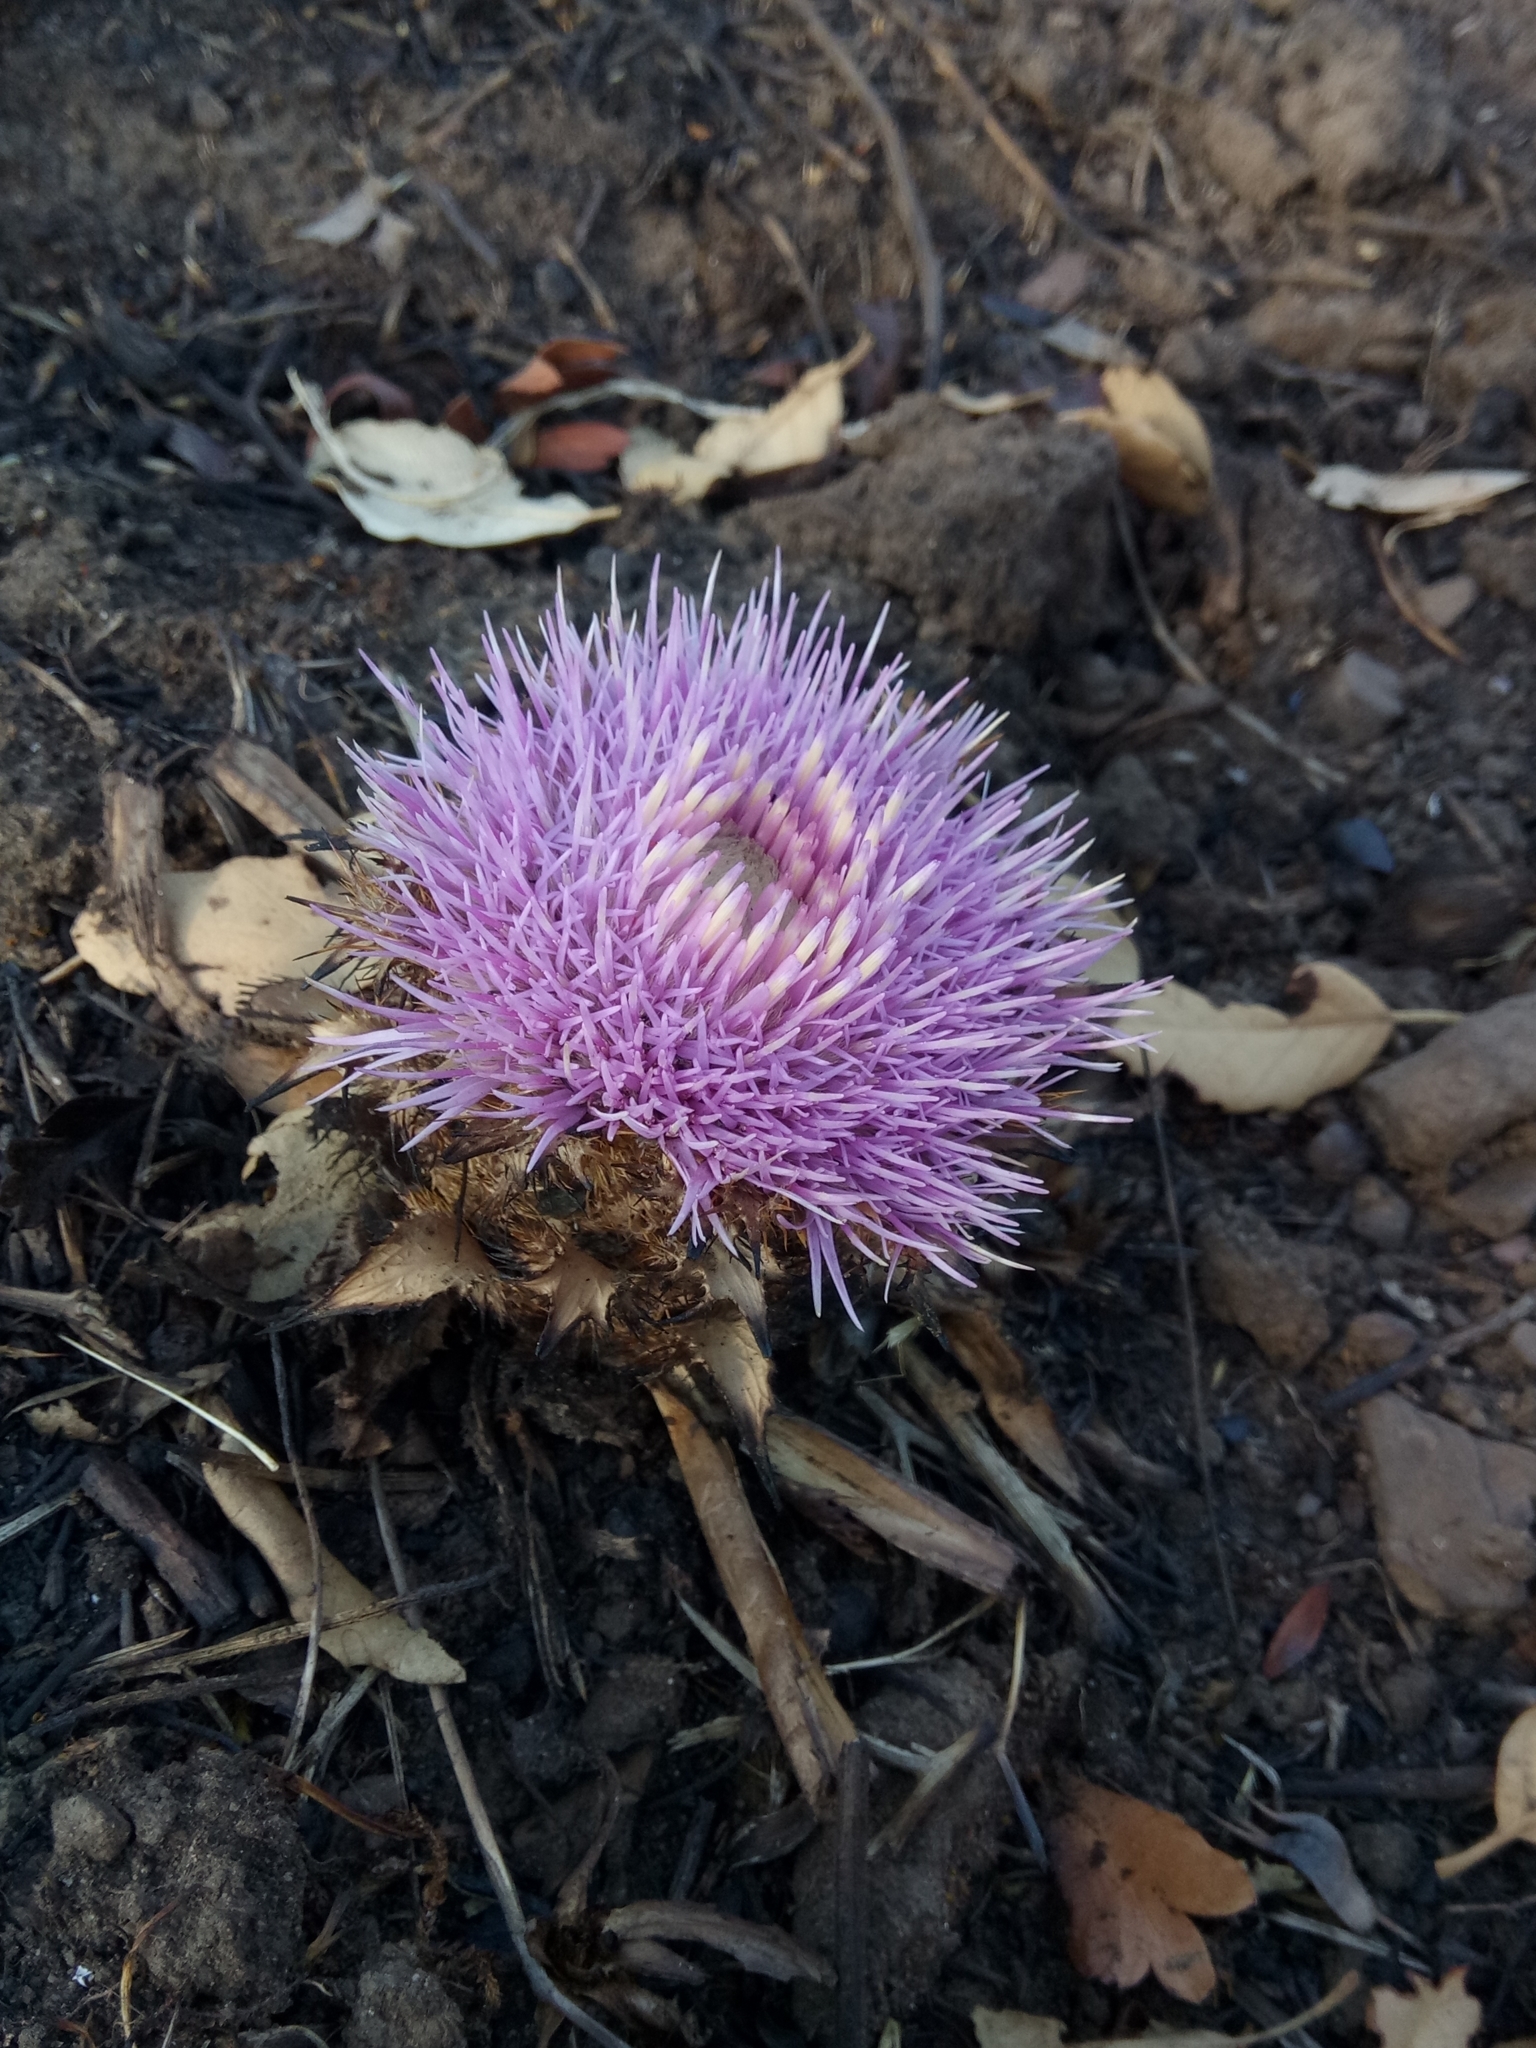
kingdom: Plantae
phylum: Tracheophyta
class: Magnoliopsida
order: Asterales
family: Asteraceae
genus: Chamaeleon
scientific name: Chamaeleon gummifer
